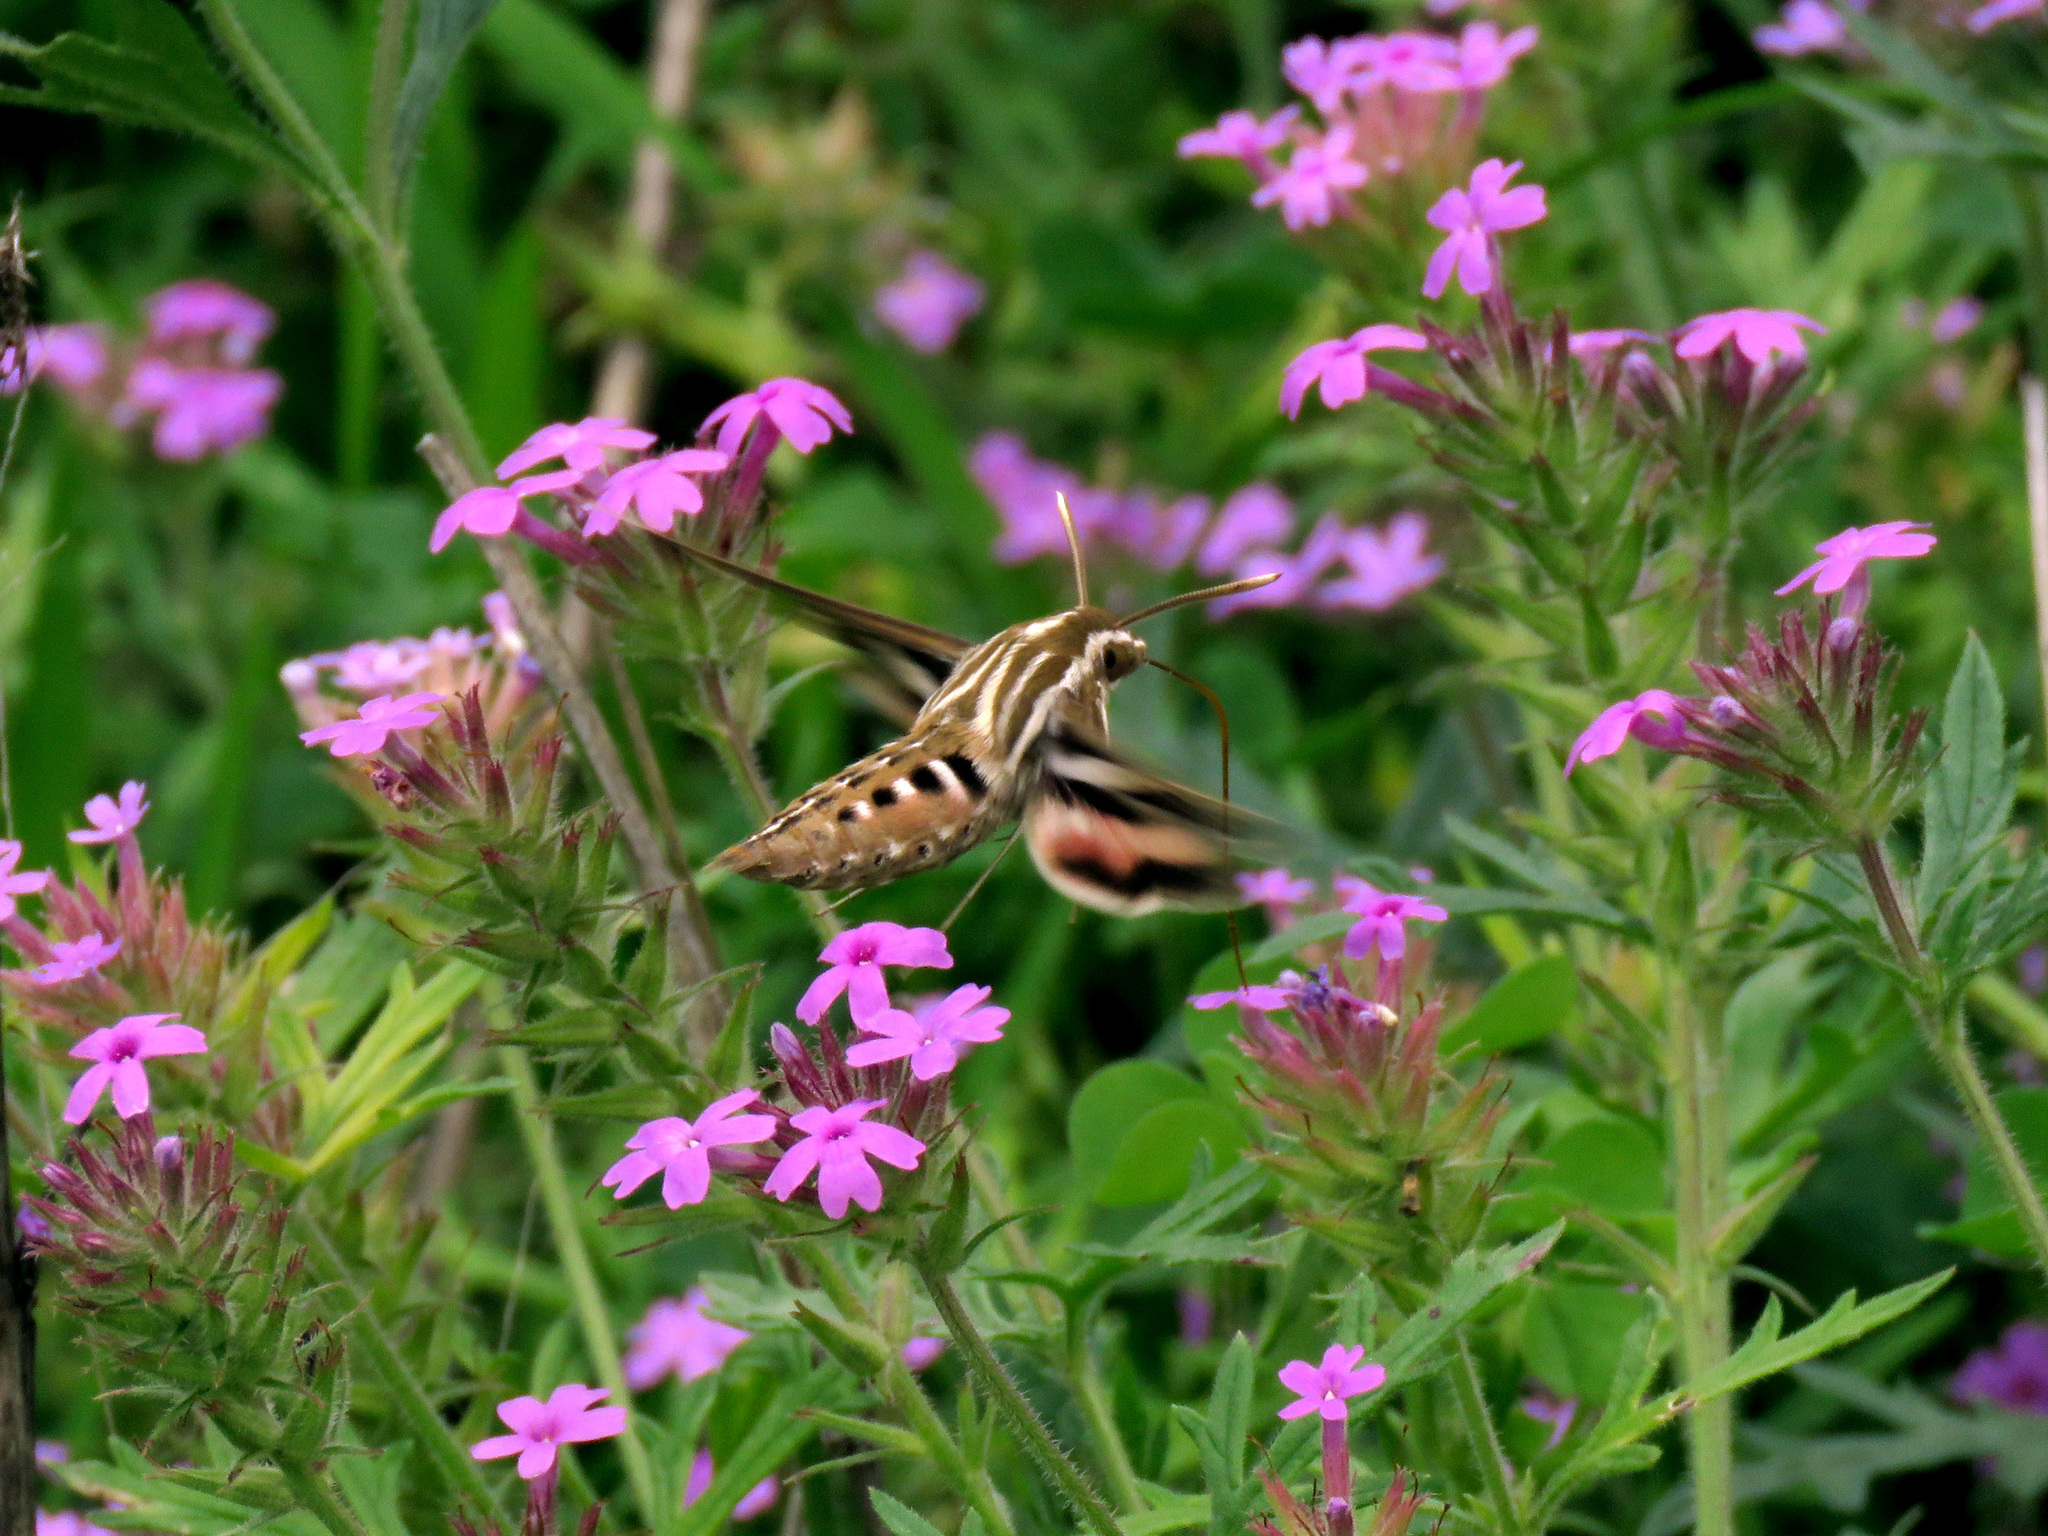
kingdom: Animalia
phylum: Arthropoda
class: Insecta
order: Lepidoptera
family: Sphingidae
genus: Hyles
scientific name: Hyles lineata
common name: White-lined sphinx
